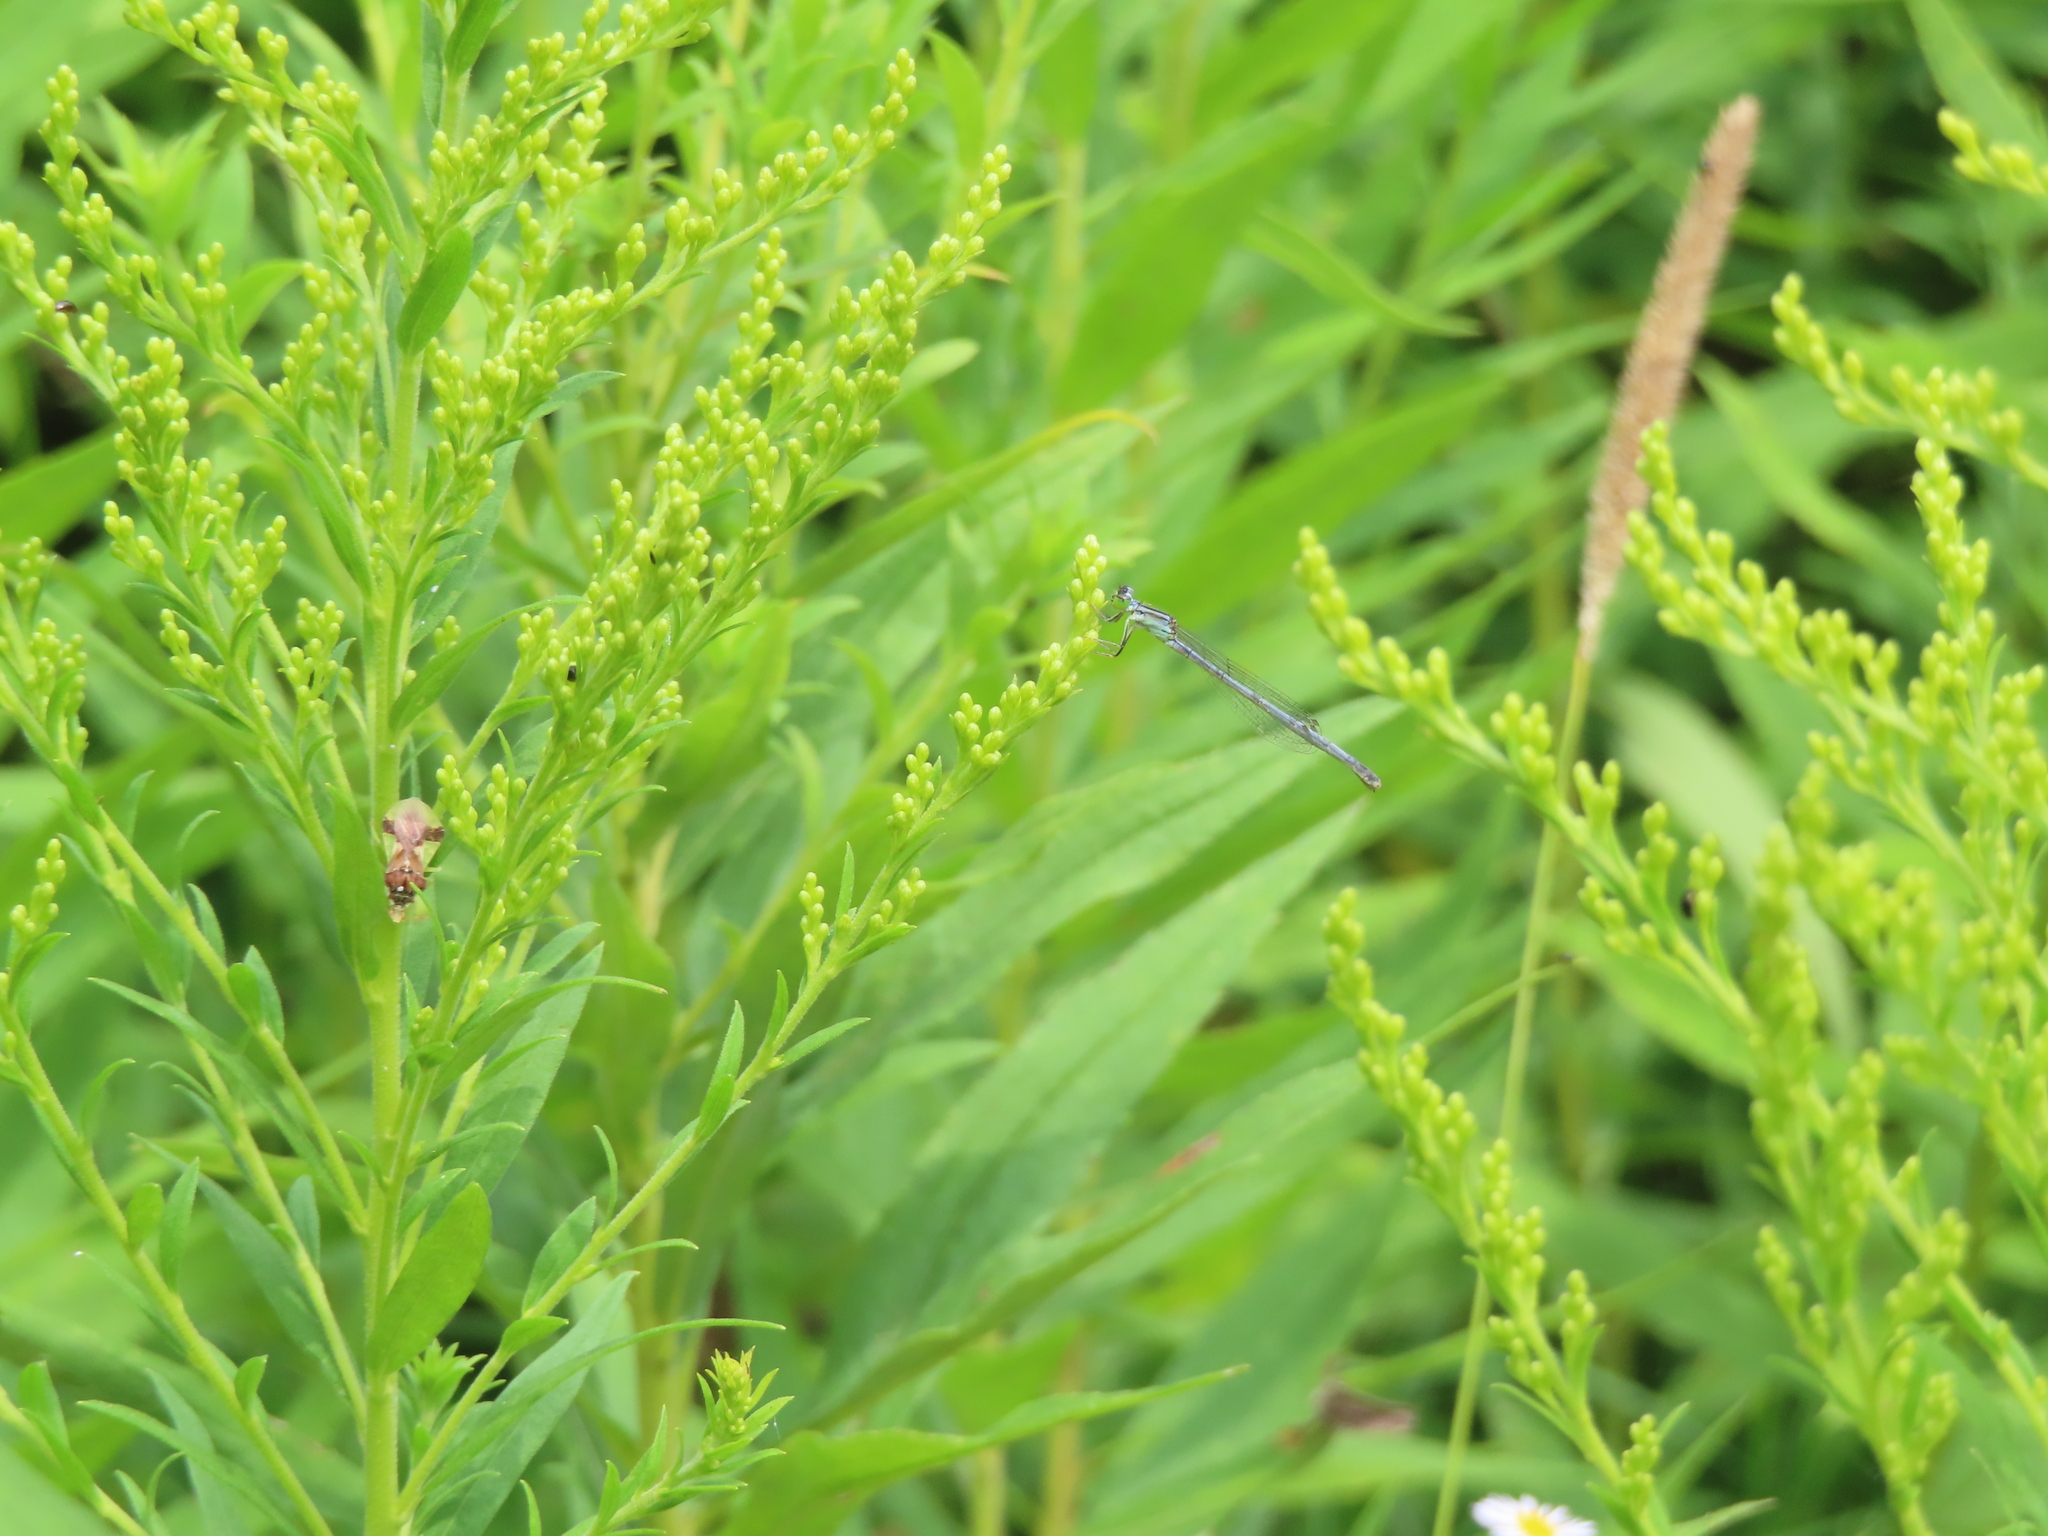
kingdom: Animalia
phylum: Arthropoda
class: Insecta
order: Odonata
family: Coenagrionidae
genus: Ischnura
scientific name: Ischnura verticalis
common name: Eastern forktail
